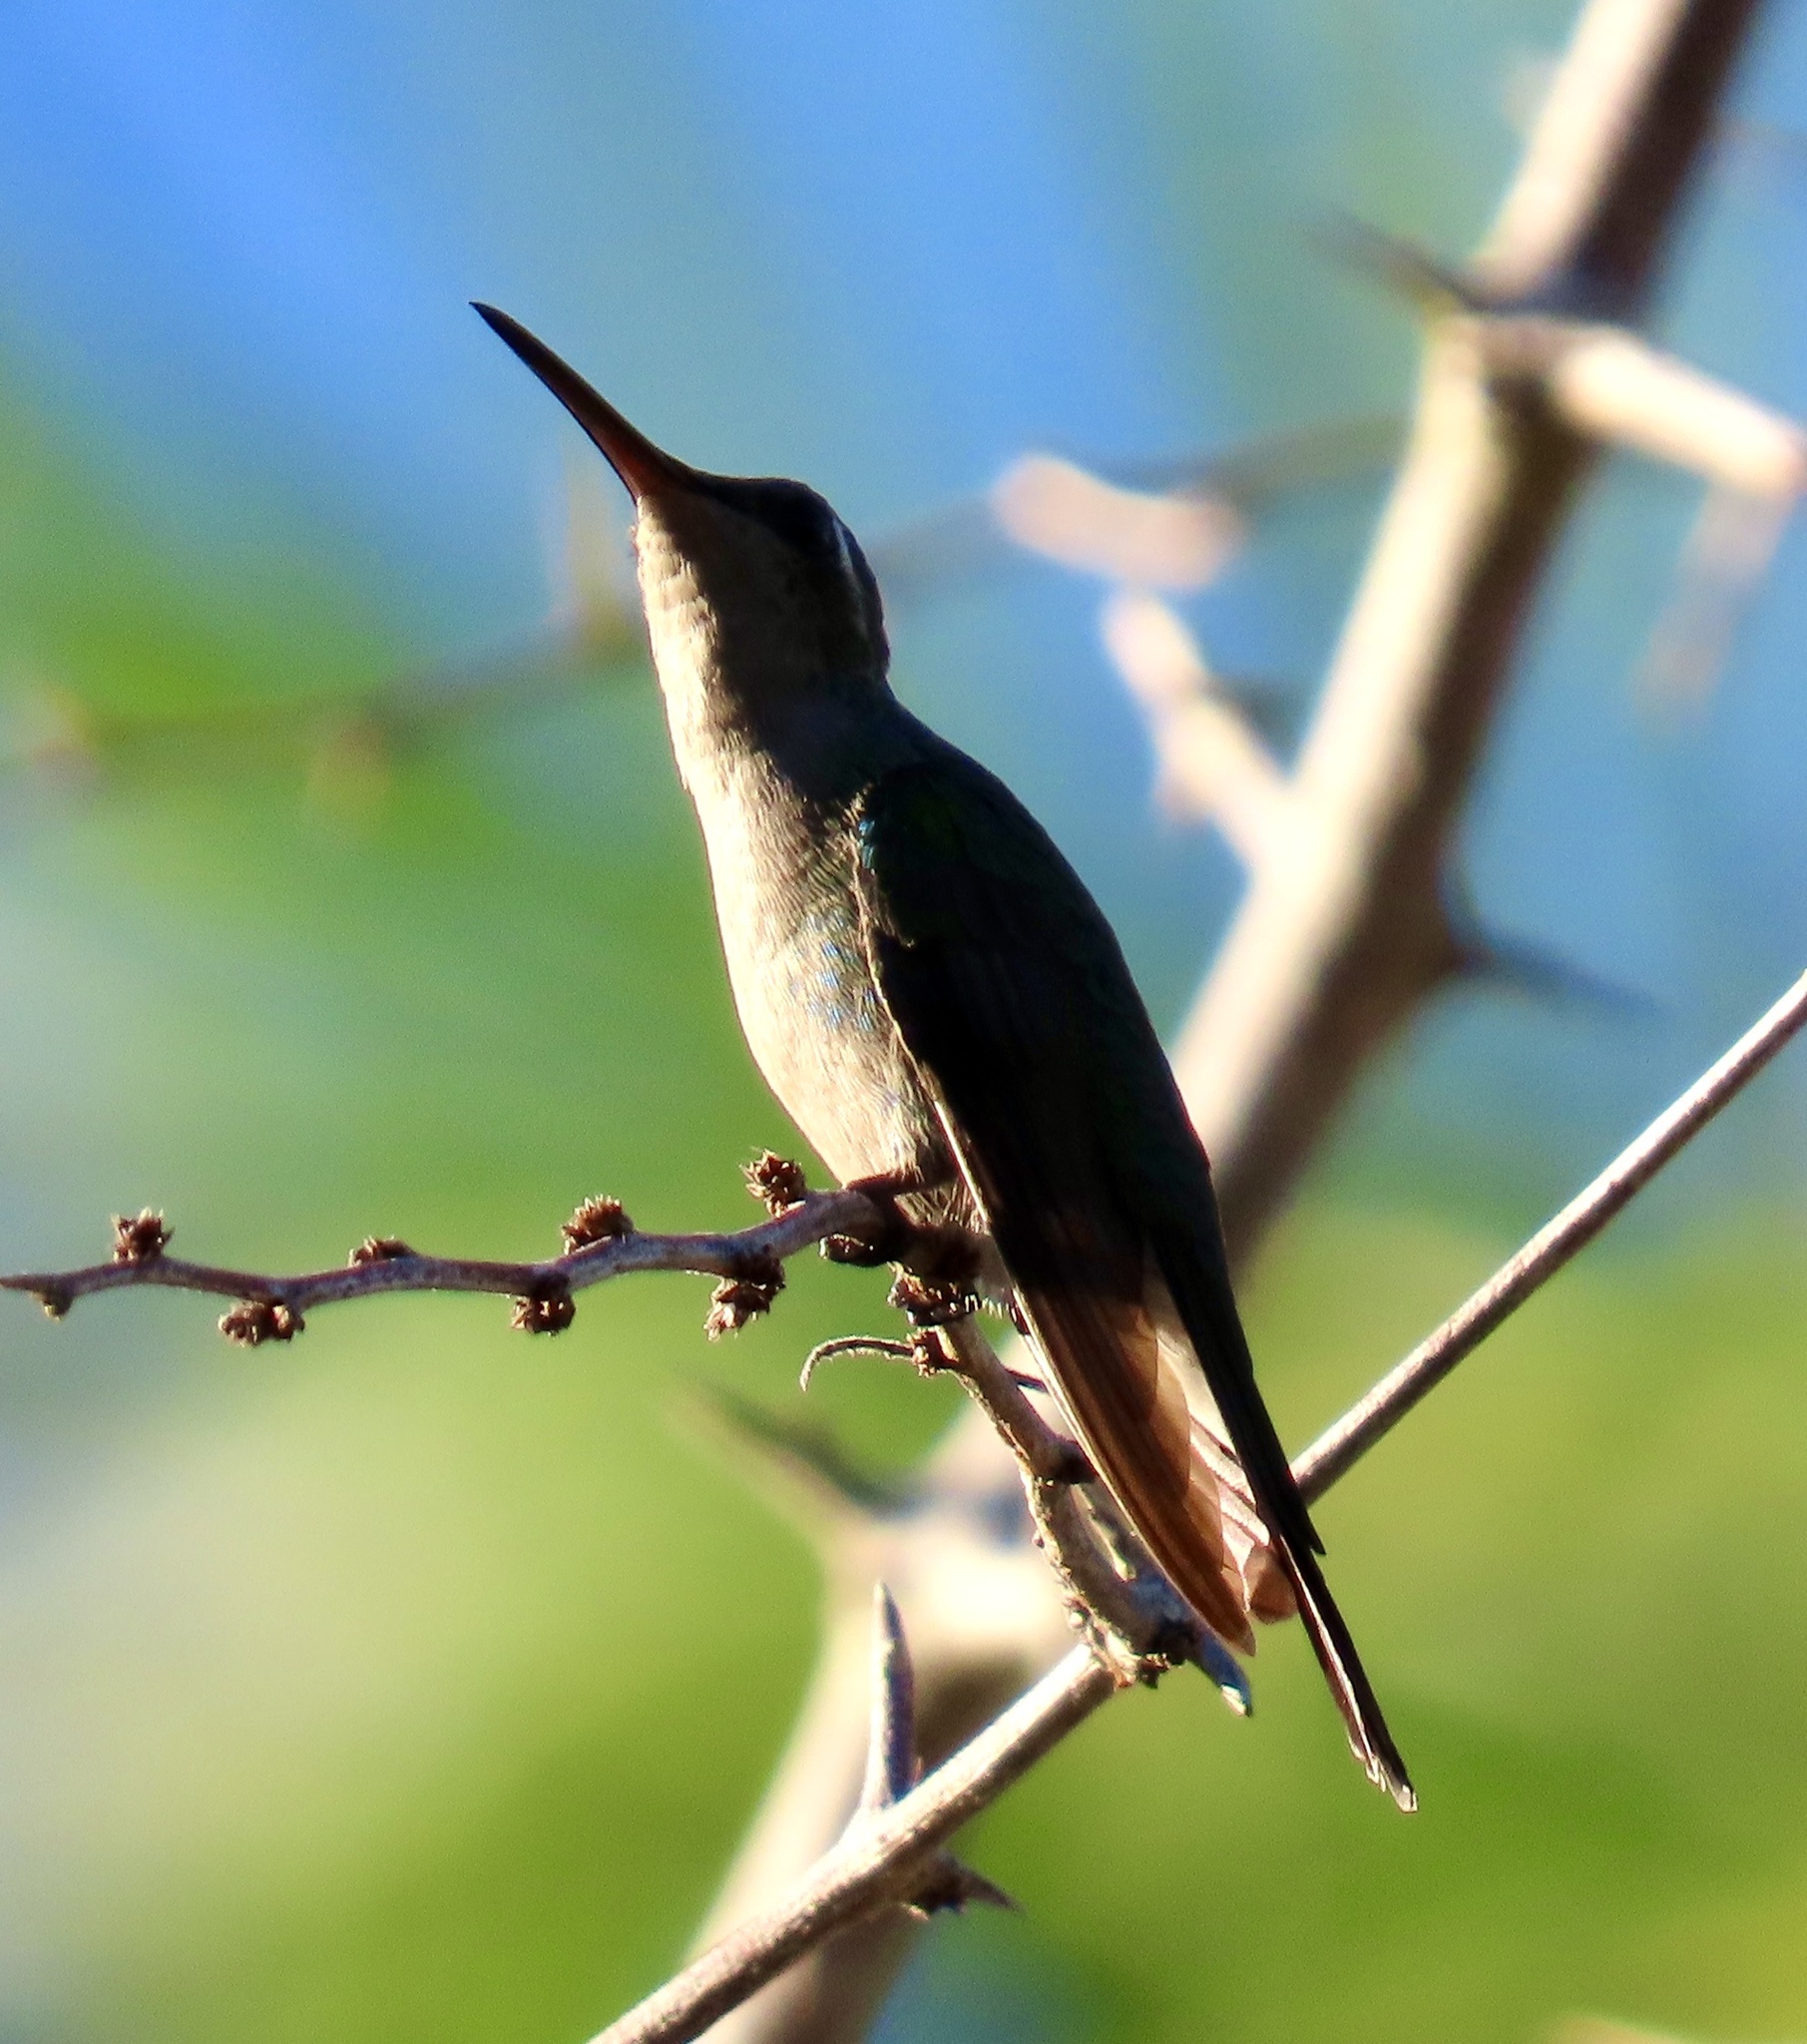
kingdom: Animalia
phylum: Chordata
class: Aves
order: Apodiformes
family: Trochilidae
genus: Riccordia
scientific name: Riccordia ricordii
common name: Cuban emerald
